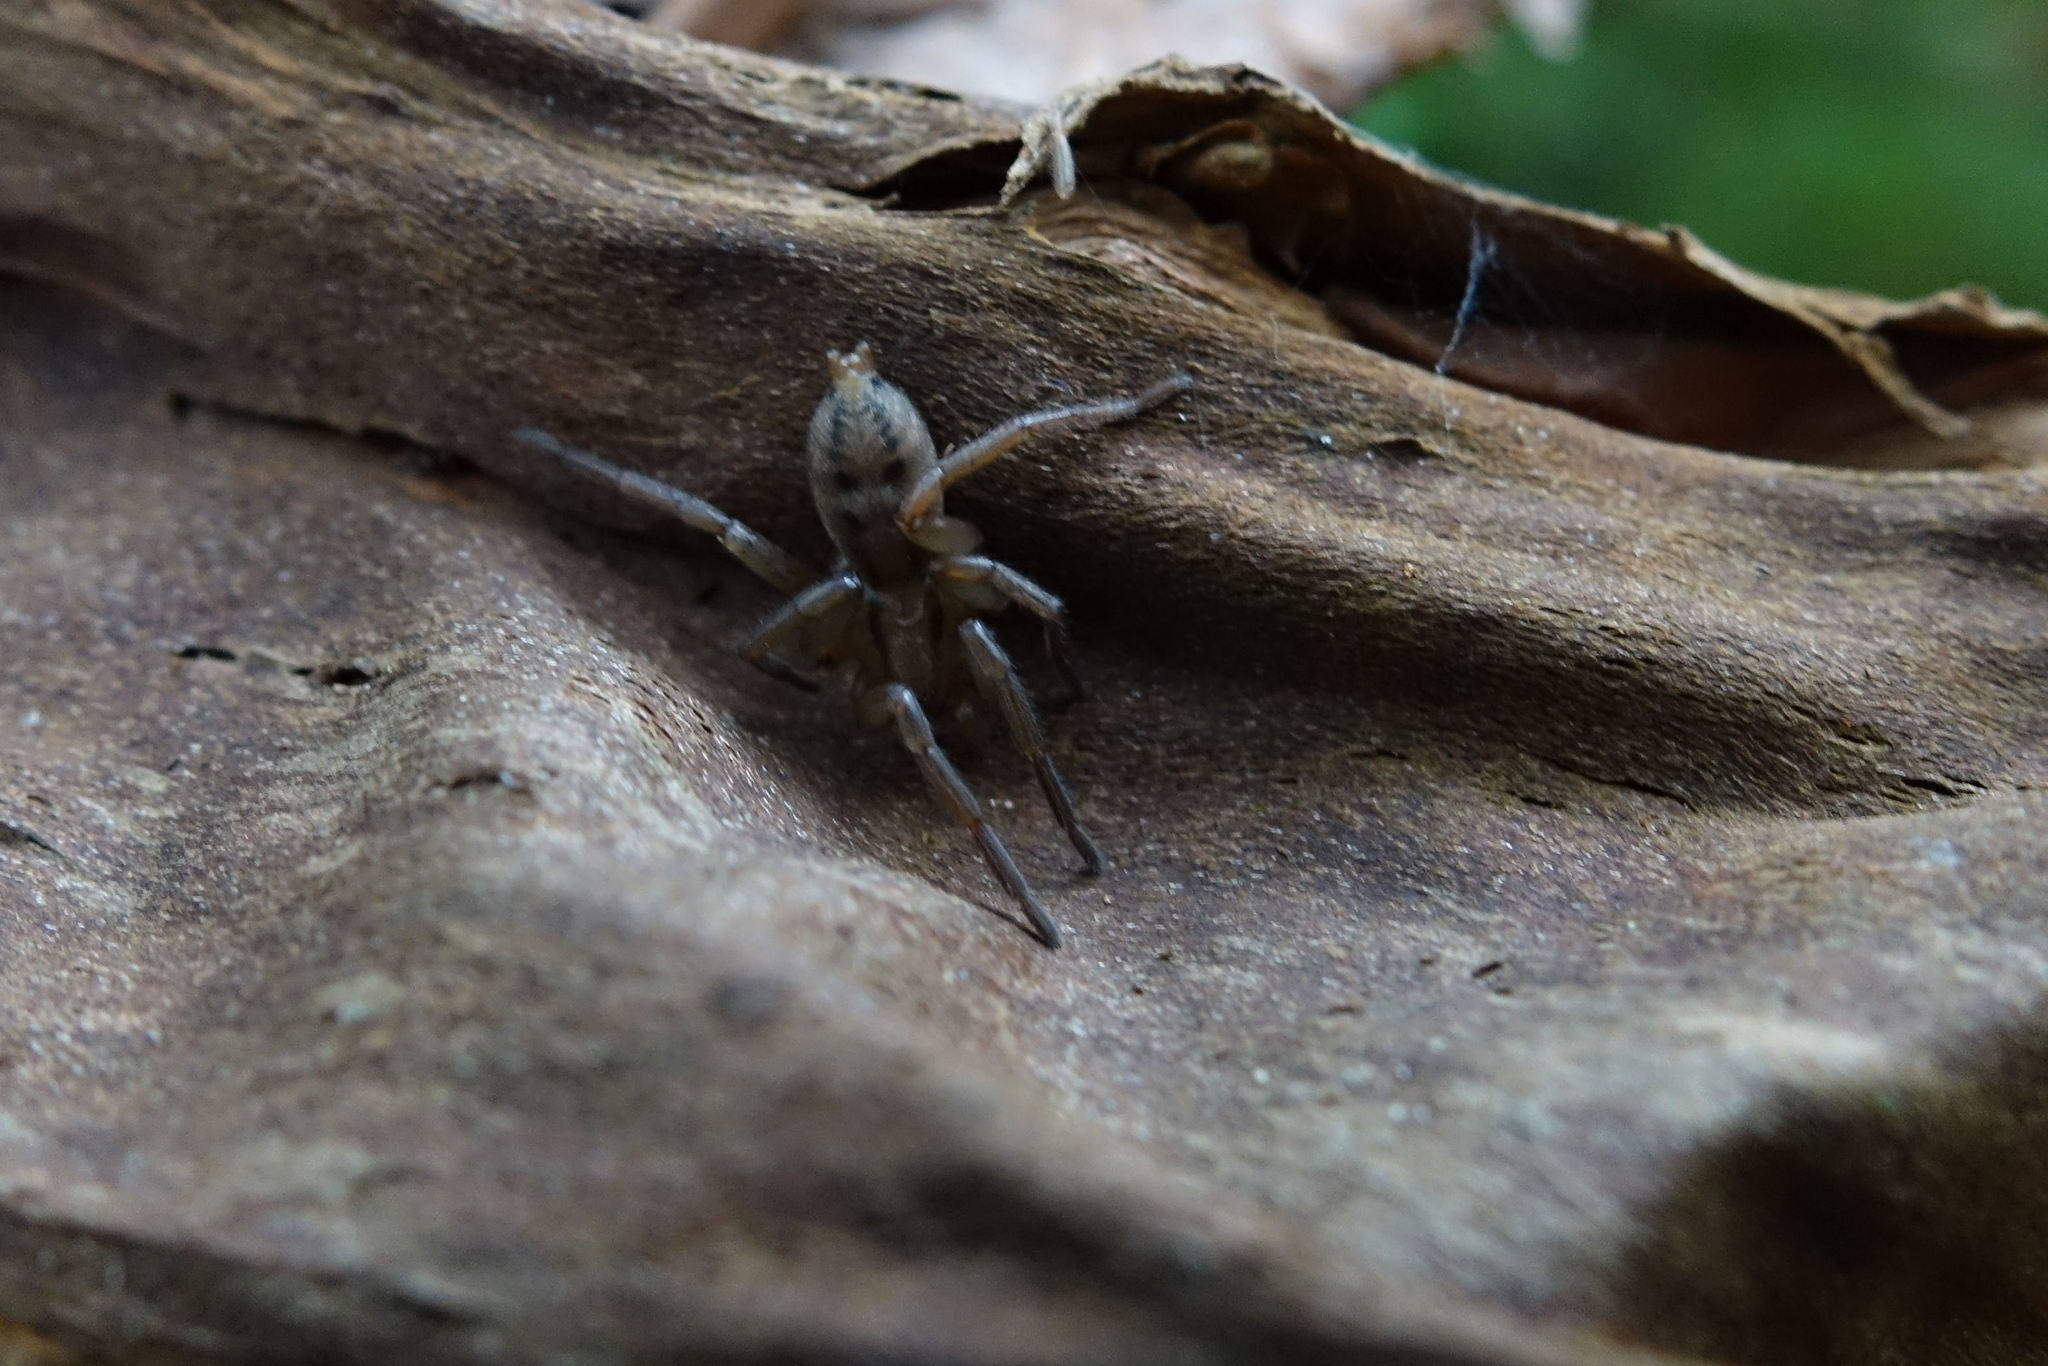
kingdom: Animalia
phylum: Arthropoda
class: Arachnida
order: Araneae
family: Gnaphosidae
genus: Notiodrassus
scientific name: Notiodrassus distinctus
